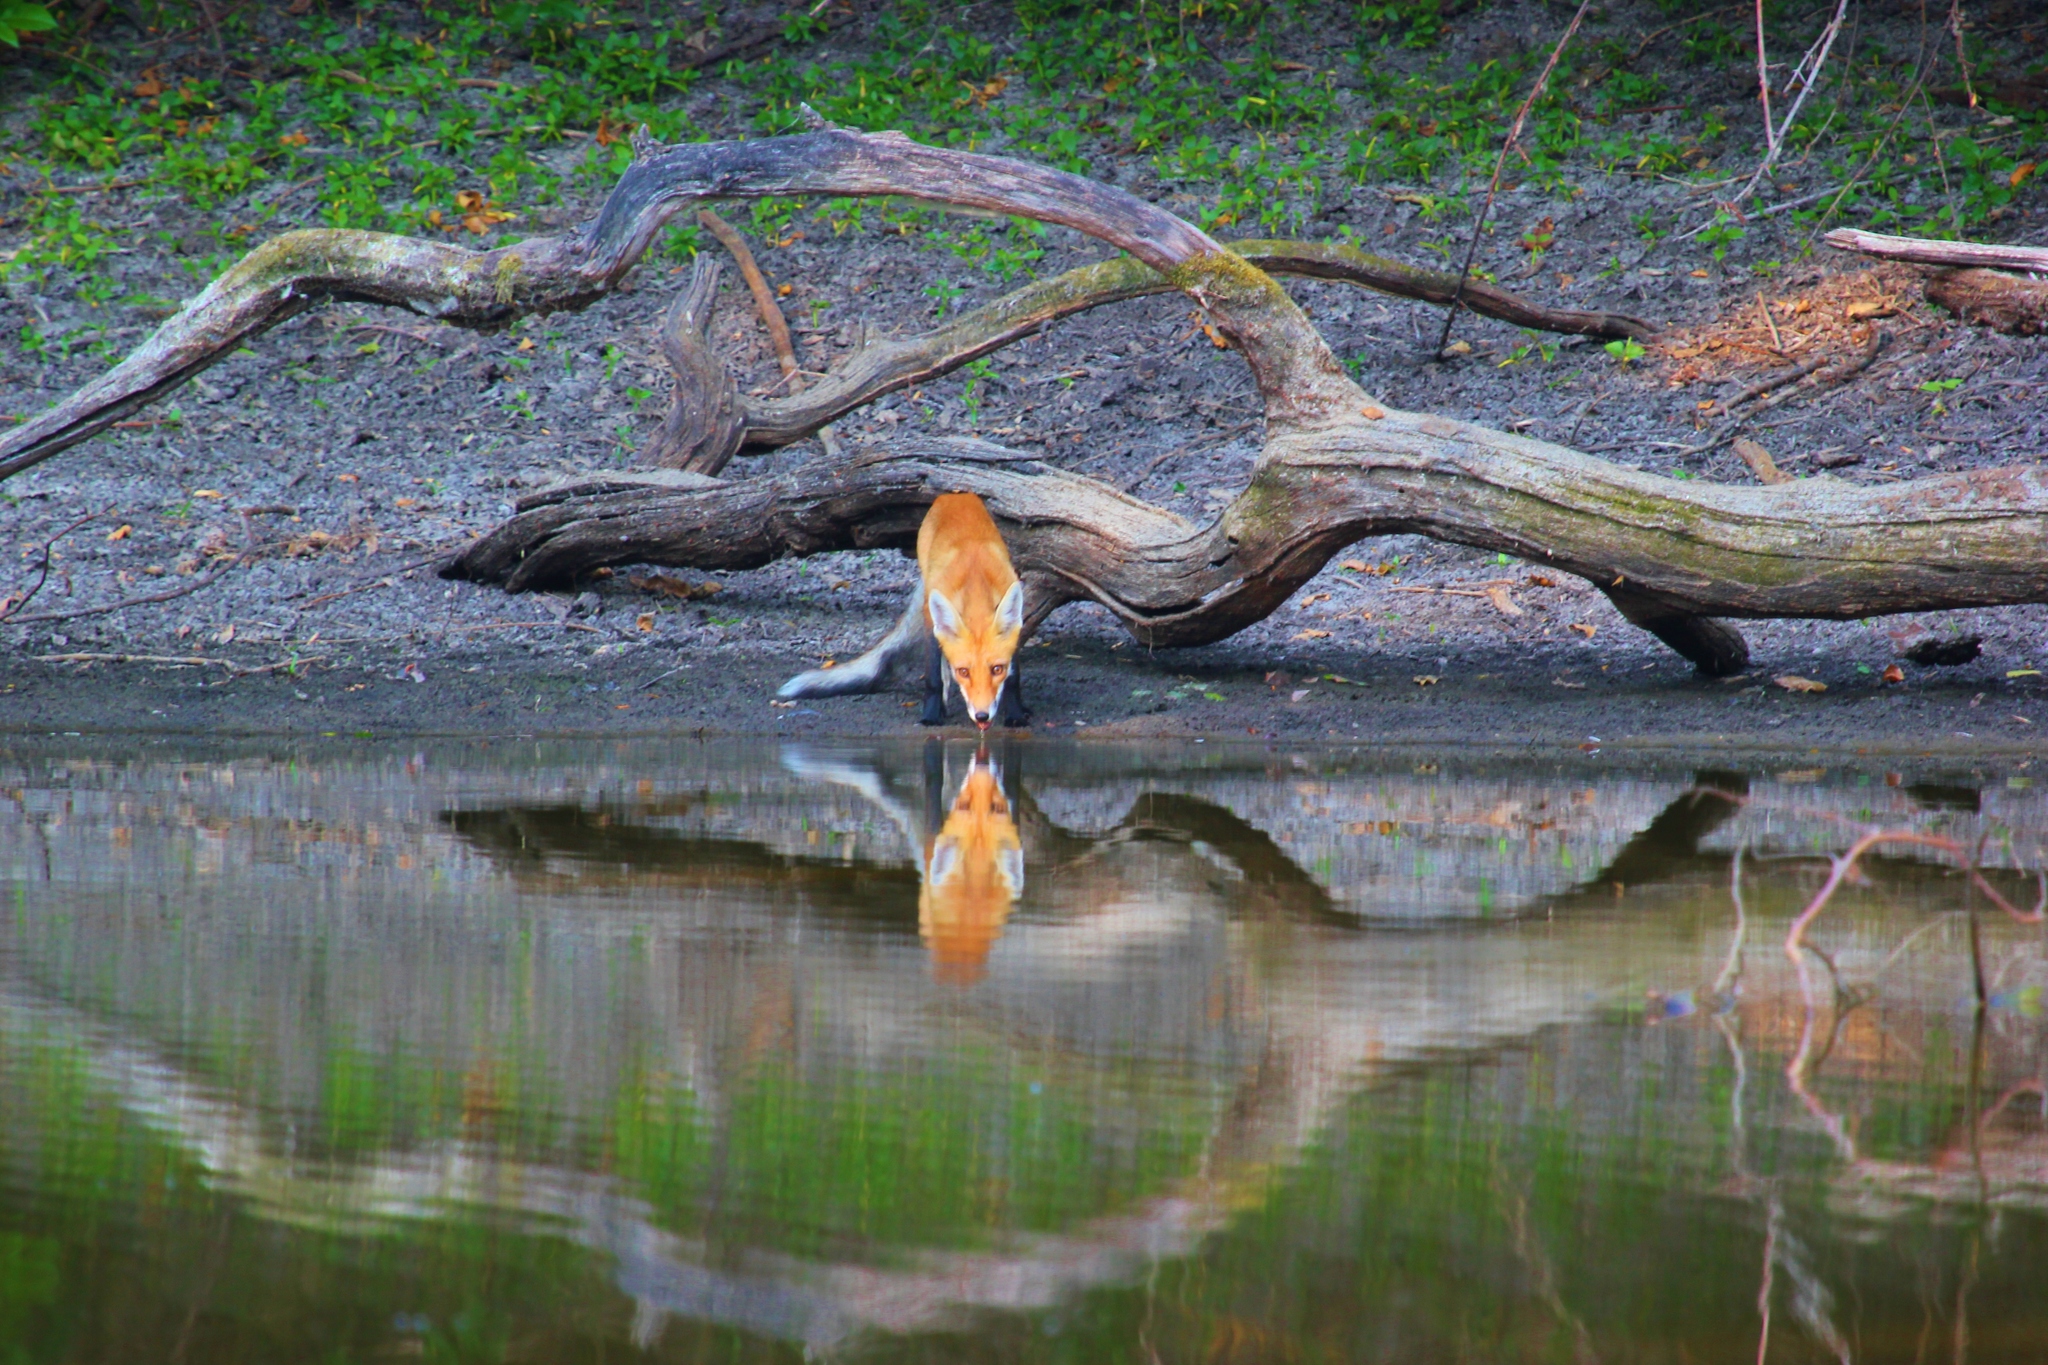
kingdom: Animalia
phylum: Chordata
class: Mammalia
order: Carnivora
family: Canidae
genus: Vulpes
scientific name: Vulpes vulpes
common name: Red fox
